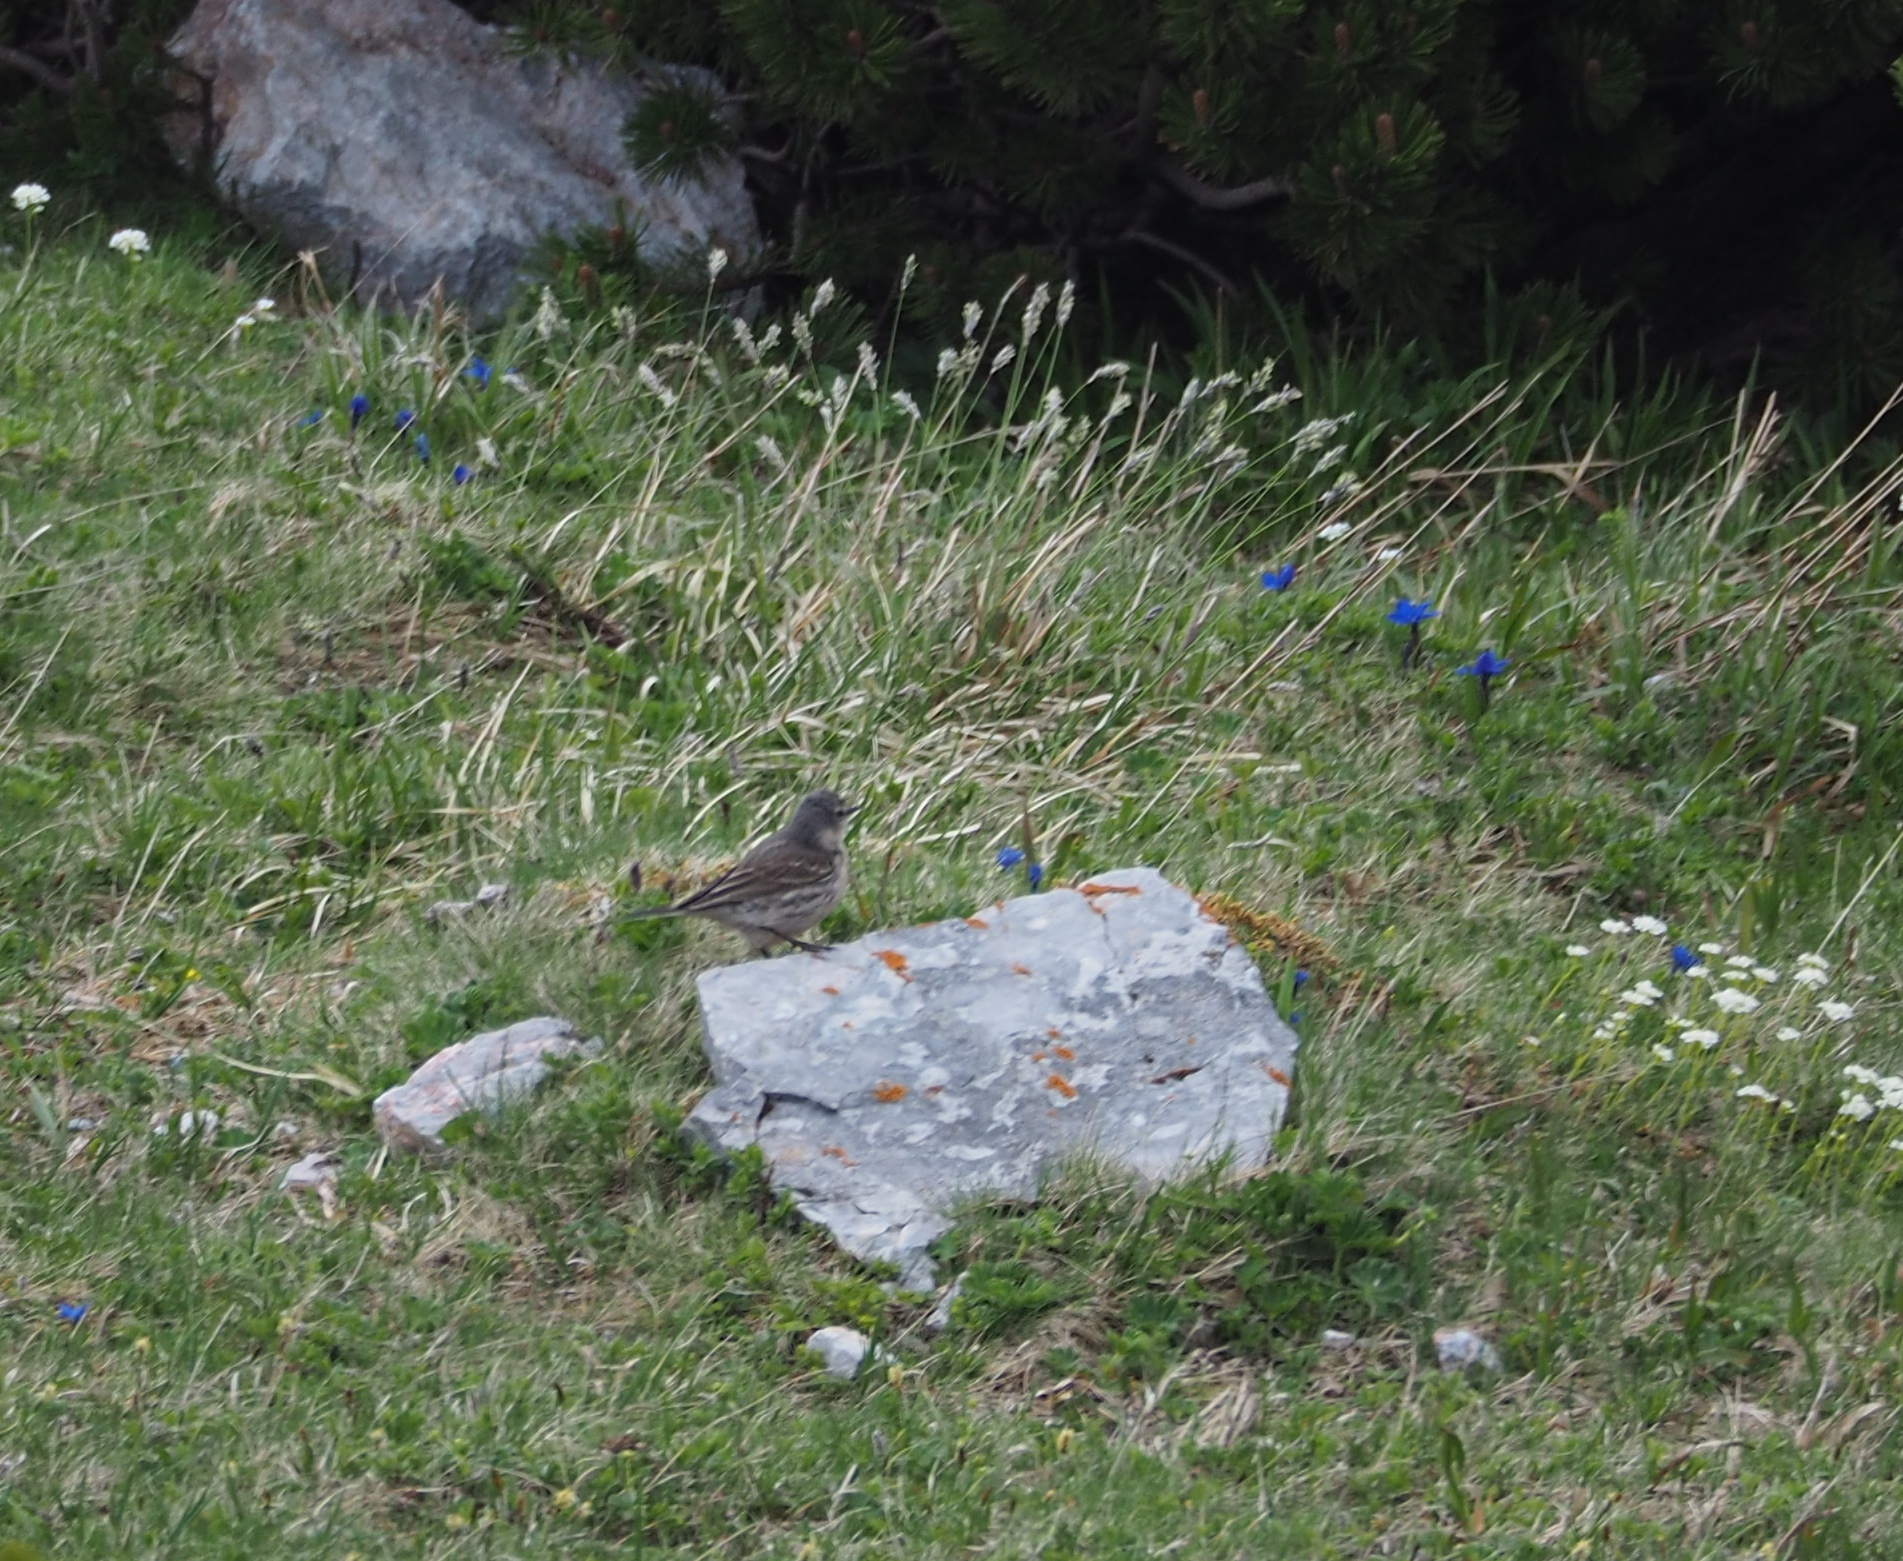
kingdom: Animalia
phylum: Chordata
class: Aves
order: Passeriformes
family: Motacillidae
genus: Anthus
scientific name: Anthus spinoletta
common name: Water pipit
